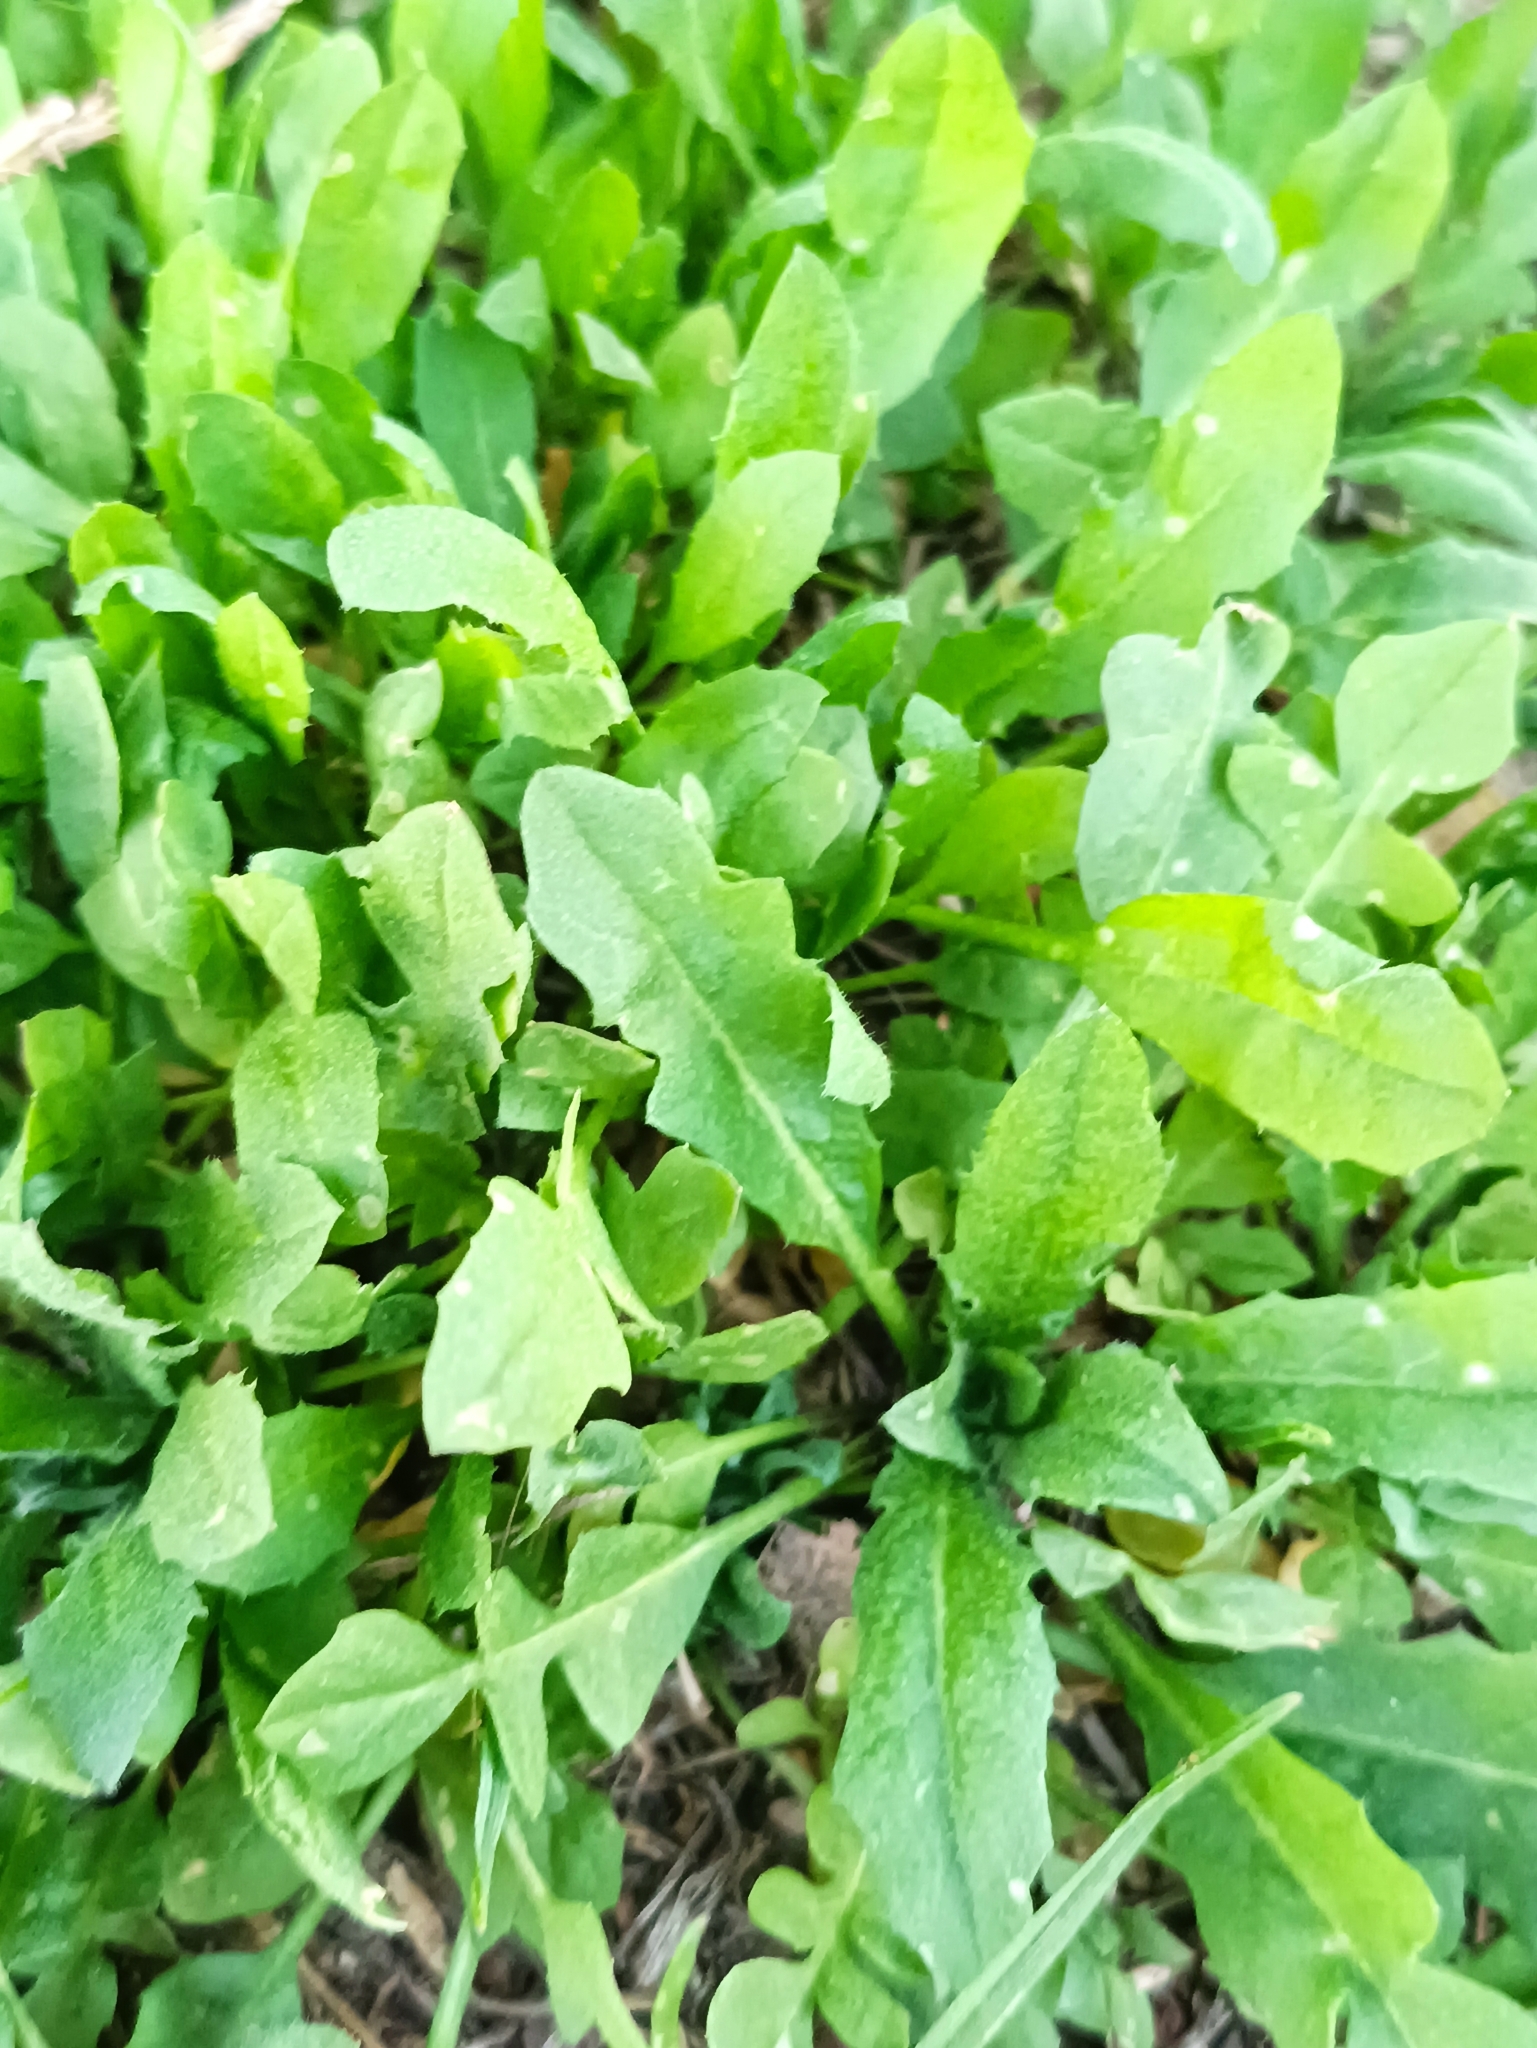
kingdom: Plantae
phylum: Tracheophyta
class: Magnoliopsida
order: Brassicales
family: Brassicaceae
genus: Capsella
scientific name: Capsella bursa-pastoris
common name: Shepherd's purse
